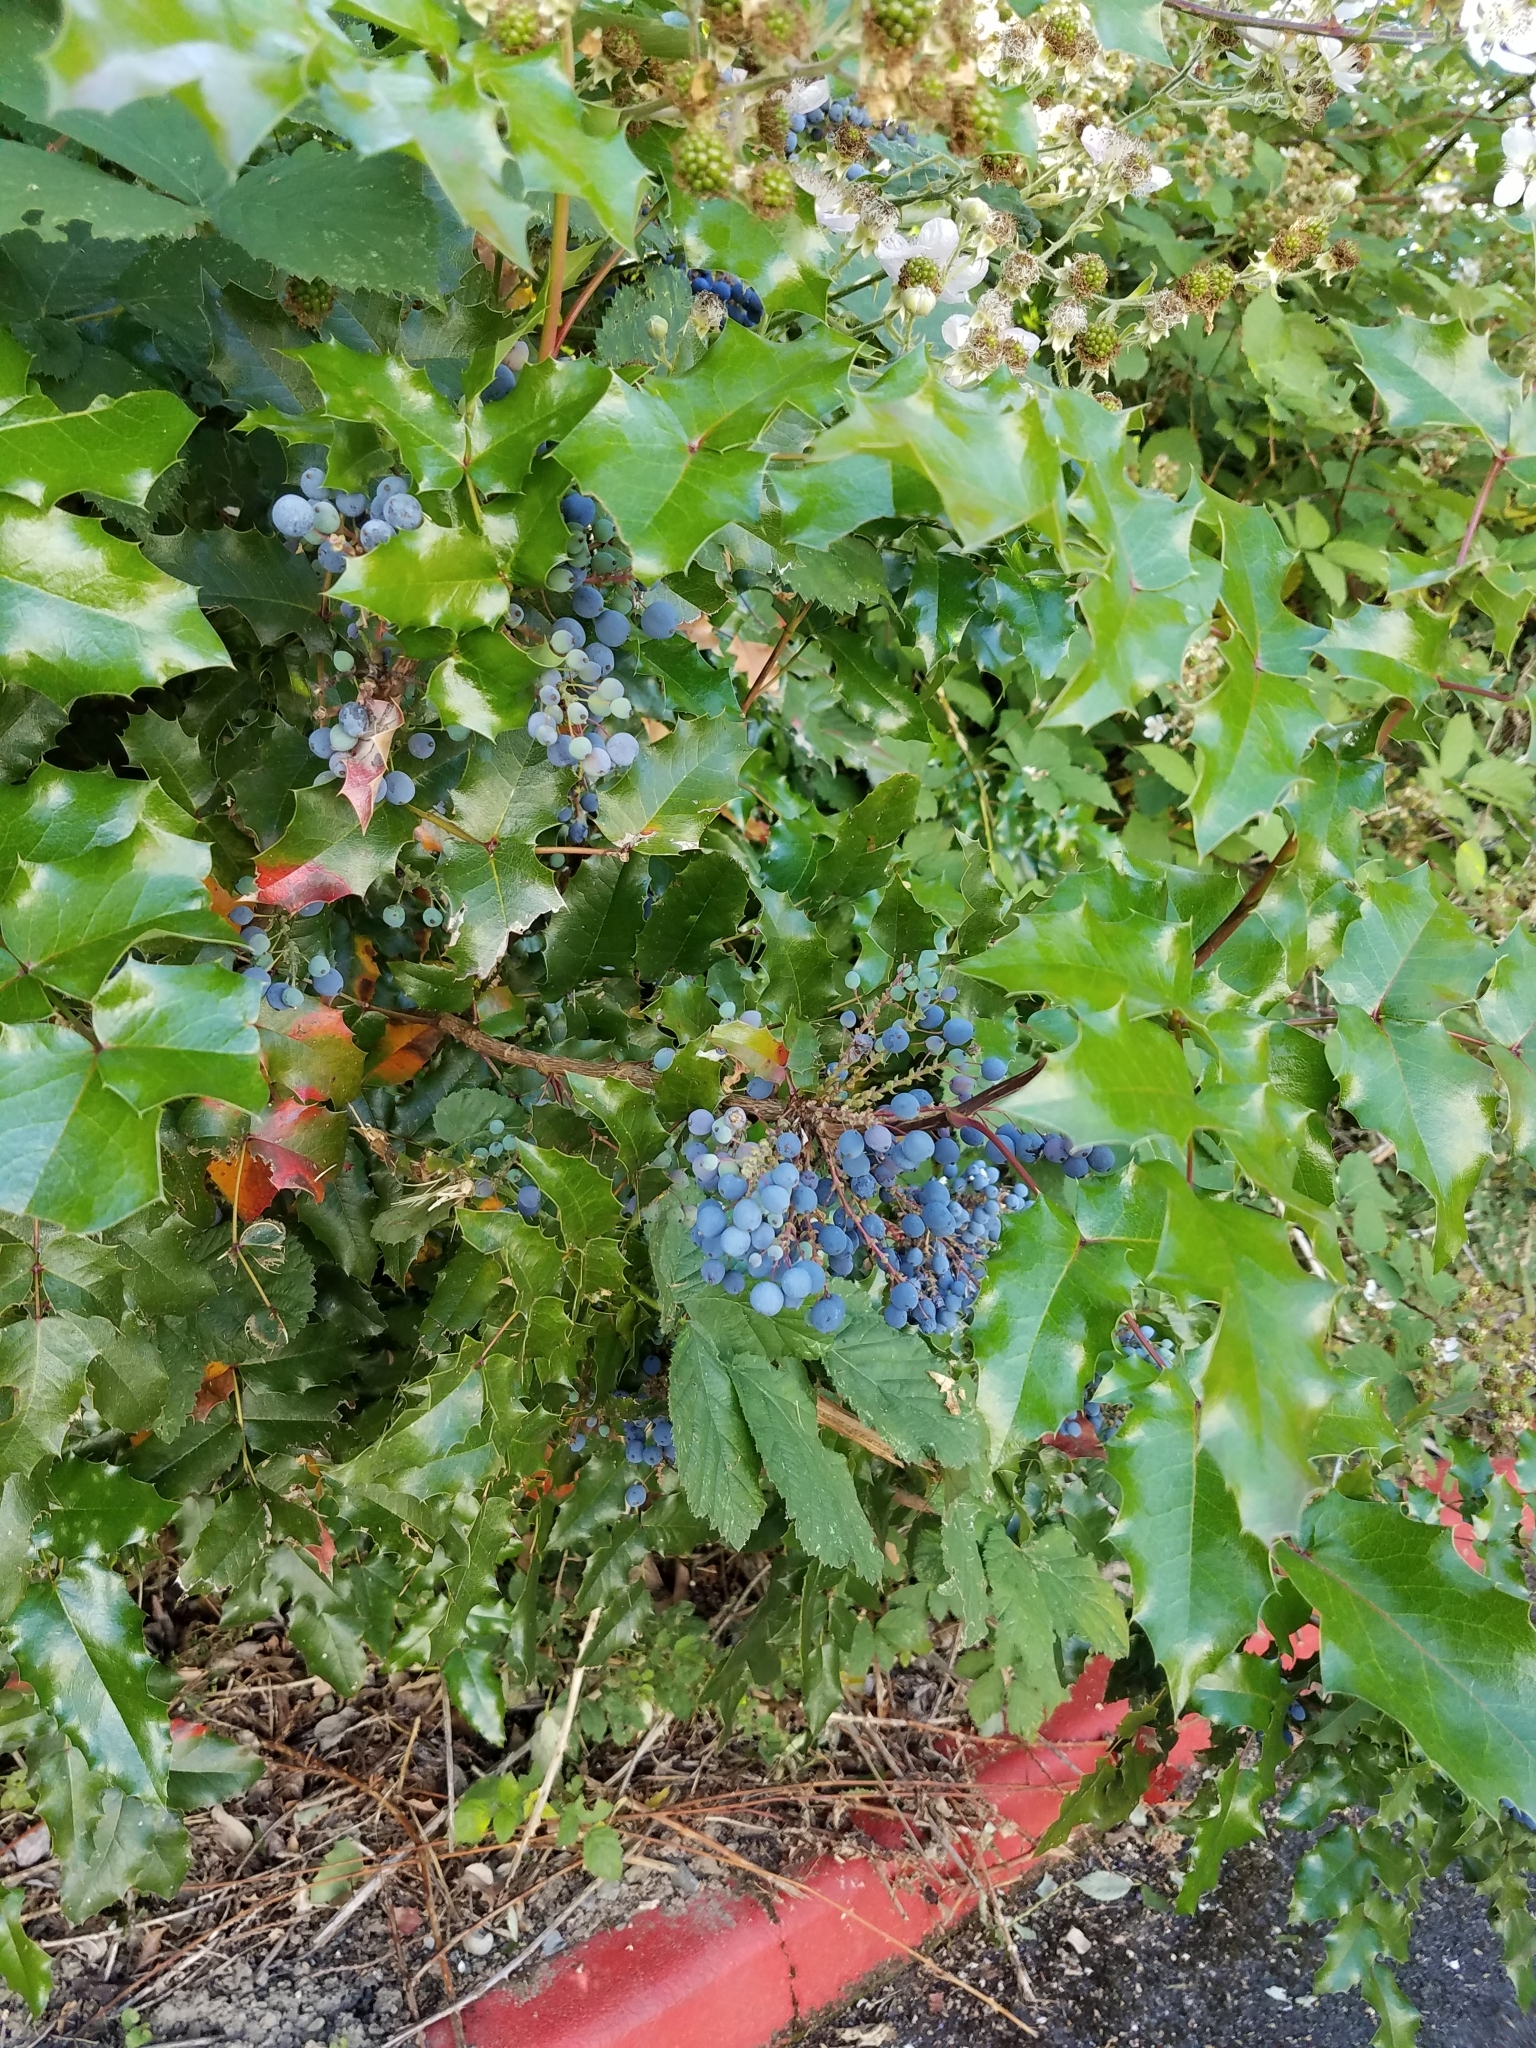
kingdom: Plantae
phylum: Tracheophyta
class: Magnoliopsida
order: Ranunculales
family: Berberidaceae
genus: Mahonia
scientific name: Mahonia aquifolium
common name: Oregon-grape
